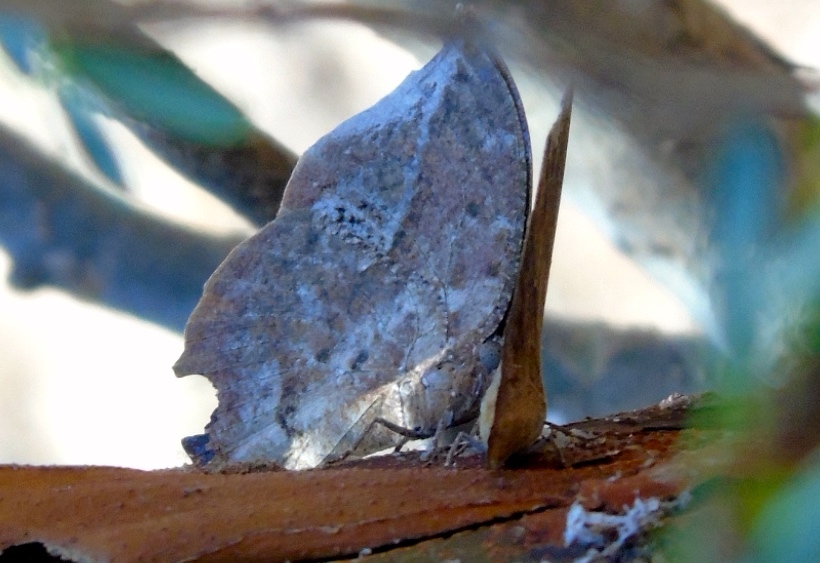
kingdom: Animalia
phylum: Arthropoda
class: Insecta
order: Lepidoptera
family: Nymphalidae
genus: Memphis
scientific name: Memphis forreri
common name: Forrer's leafwing
